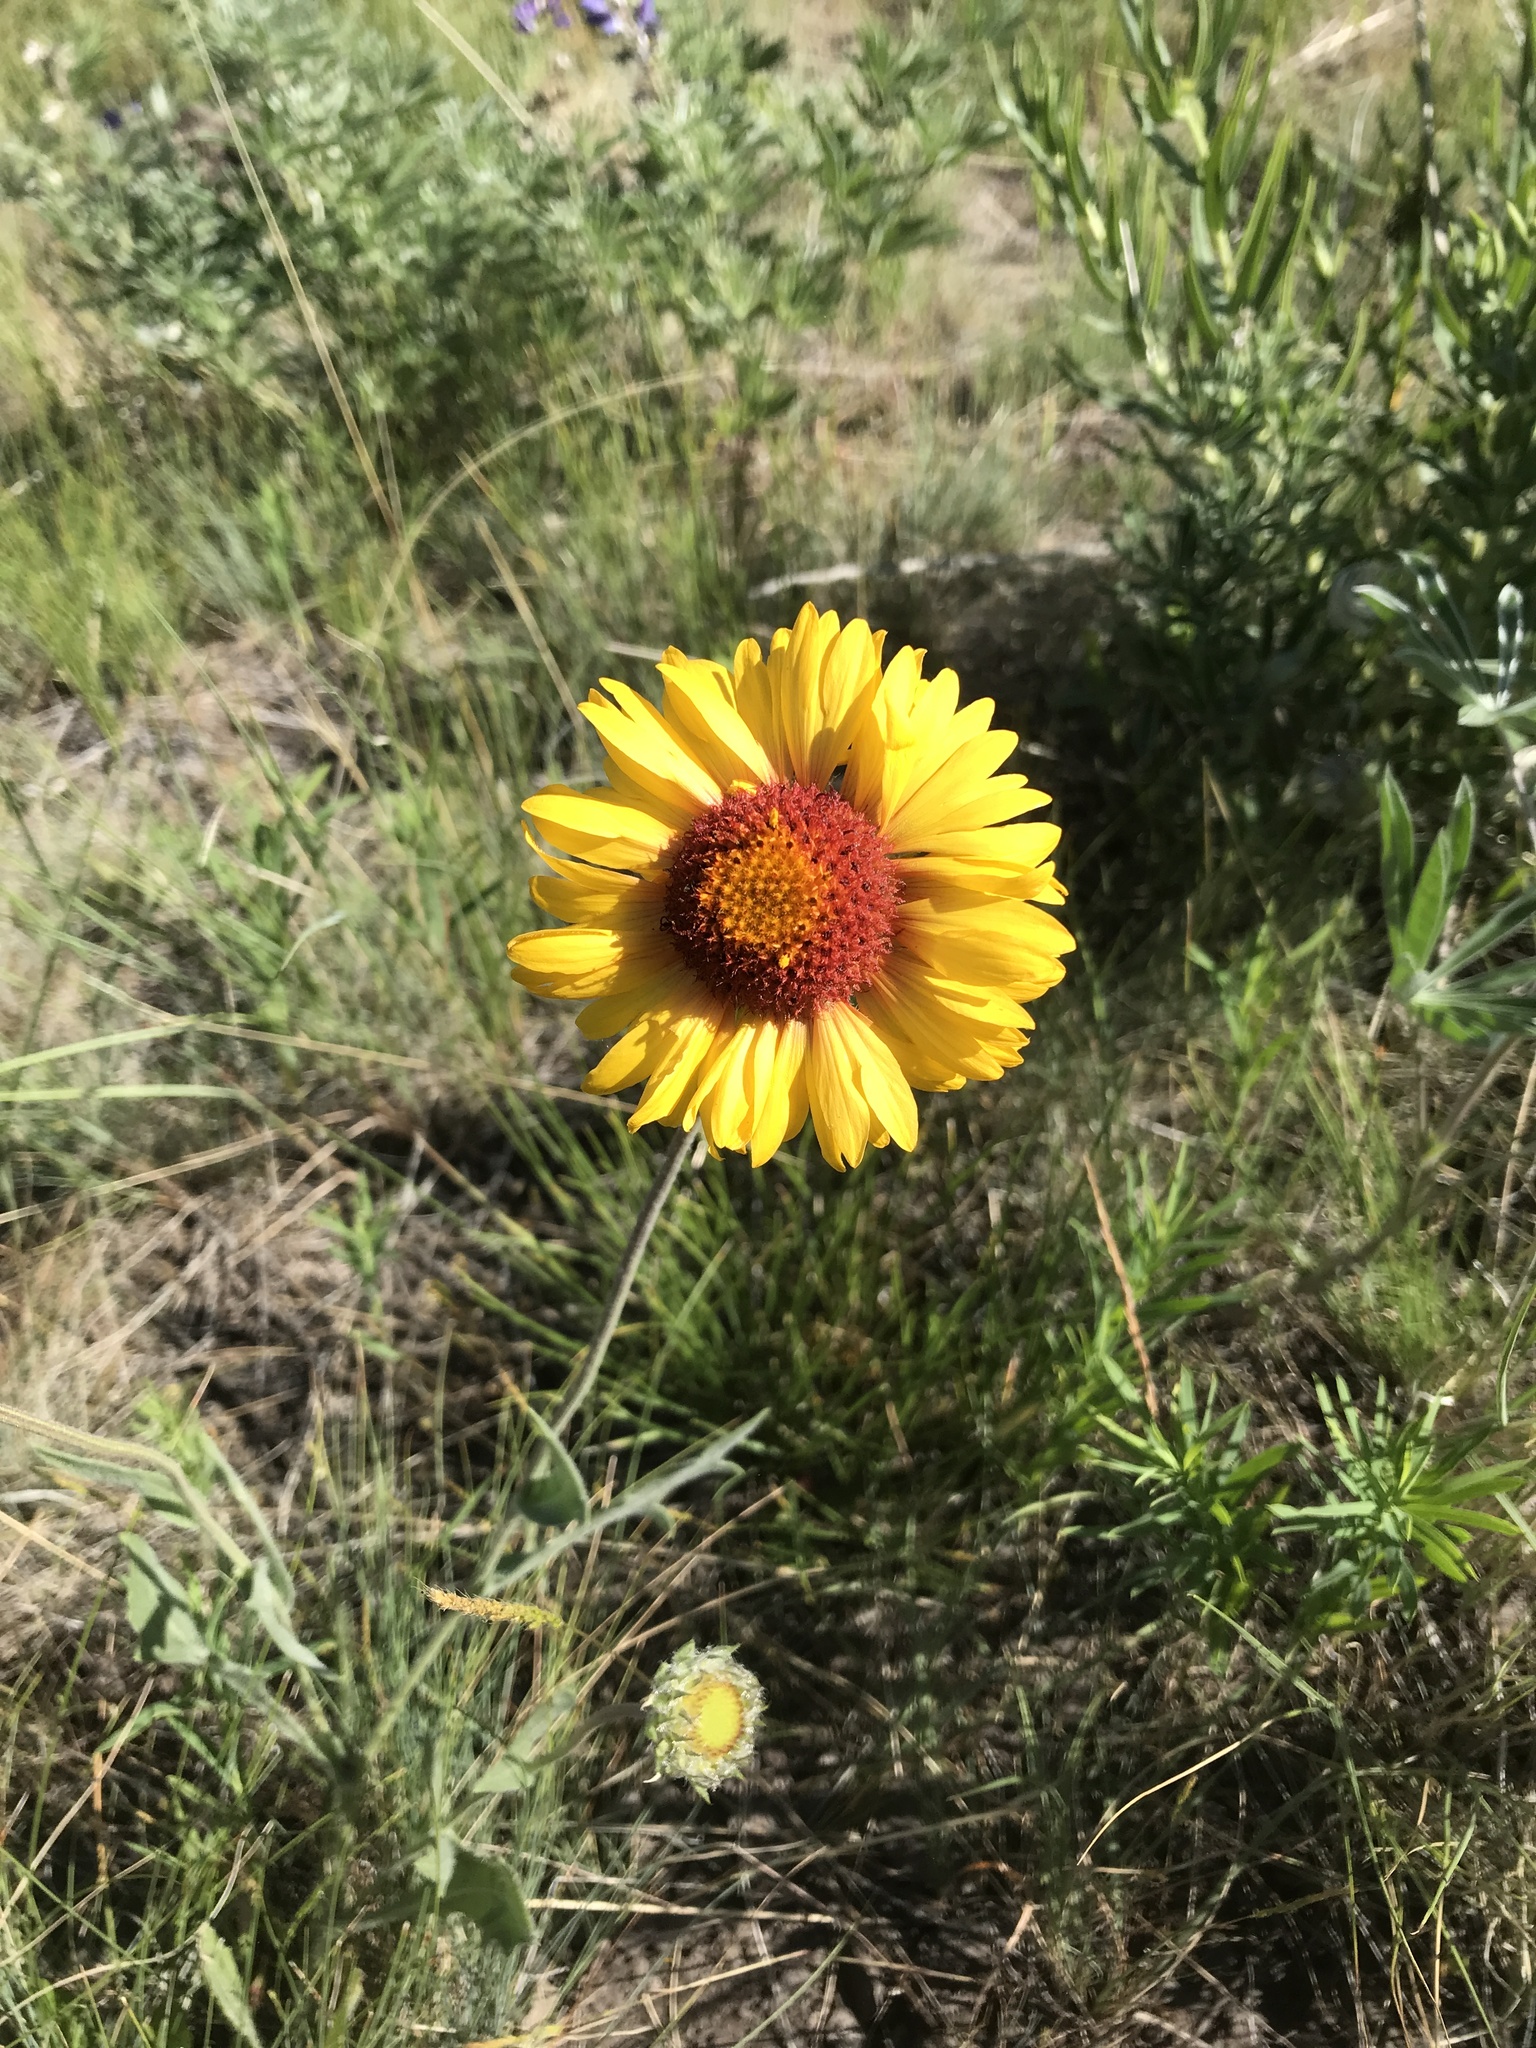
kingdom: Plantae
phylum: Tracheophyta
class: Magnoliopsida
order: Asterales
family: Asteraceae
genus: Gaillardia
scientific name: Gaillardia aristata
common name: Blanket-flower
